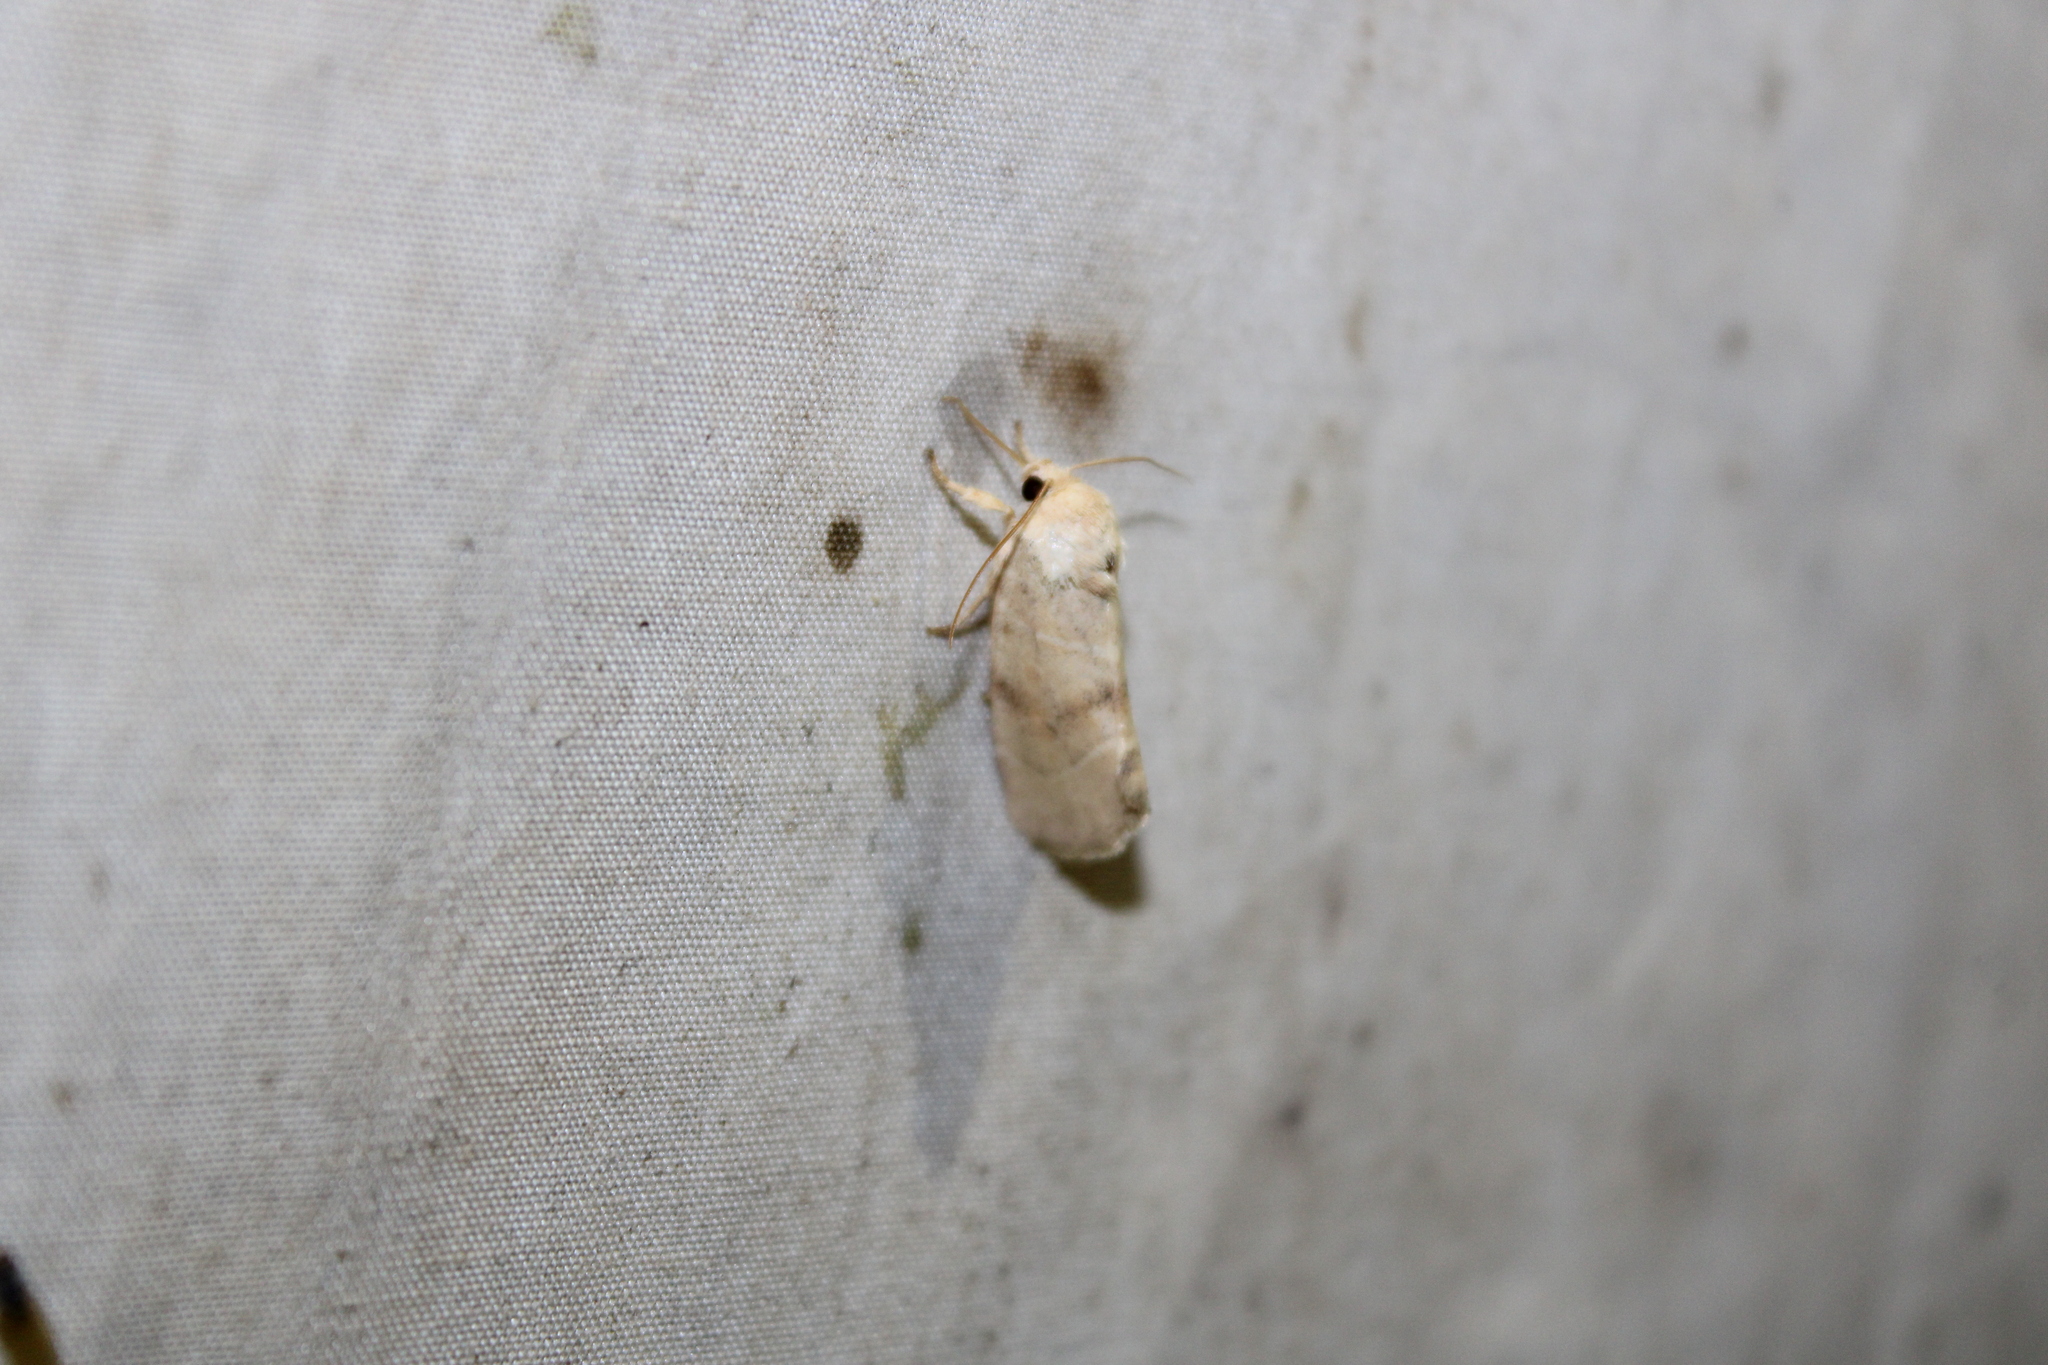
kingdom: Animalia
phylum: Arthropoda
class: Insecta
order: Lepidoptera
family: Noctuidae
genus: Cosmia
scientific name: Cosmia calami
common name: American dun-bar moth
